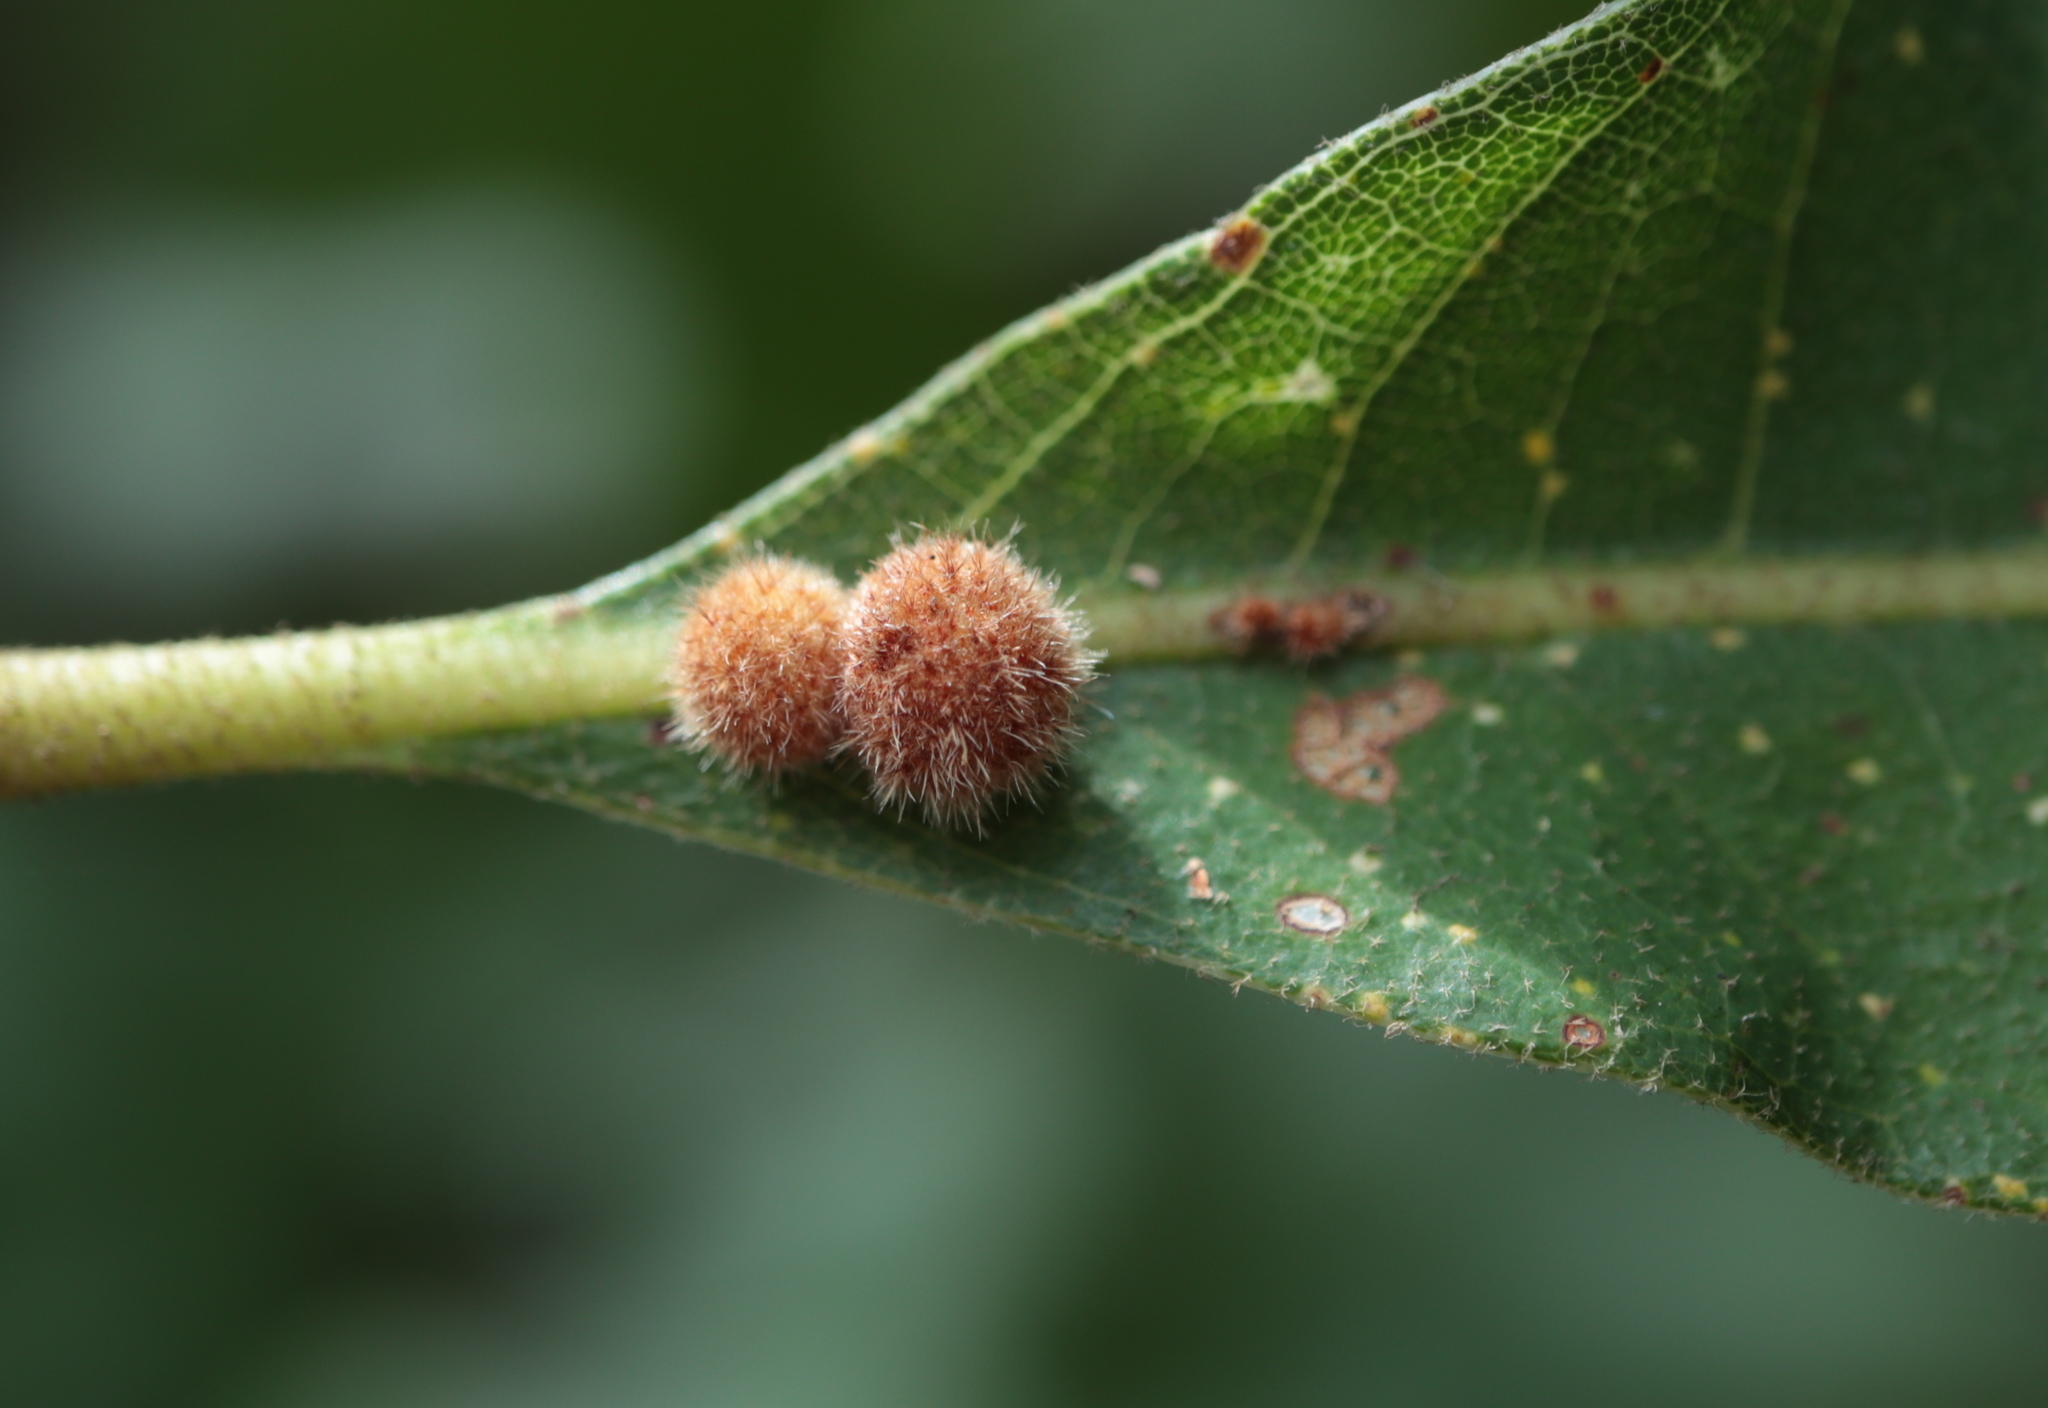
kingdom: Animalia
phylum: Arthropoda
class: Insecta
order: Hymenoptera
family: Cynipidae
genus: Biorhiza
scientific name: Biorhiza Sphaeroteras carolina
